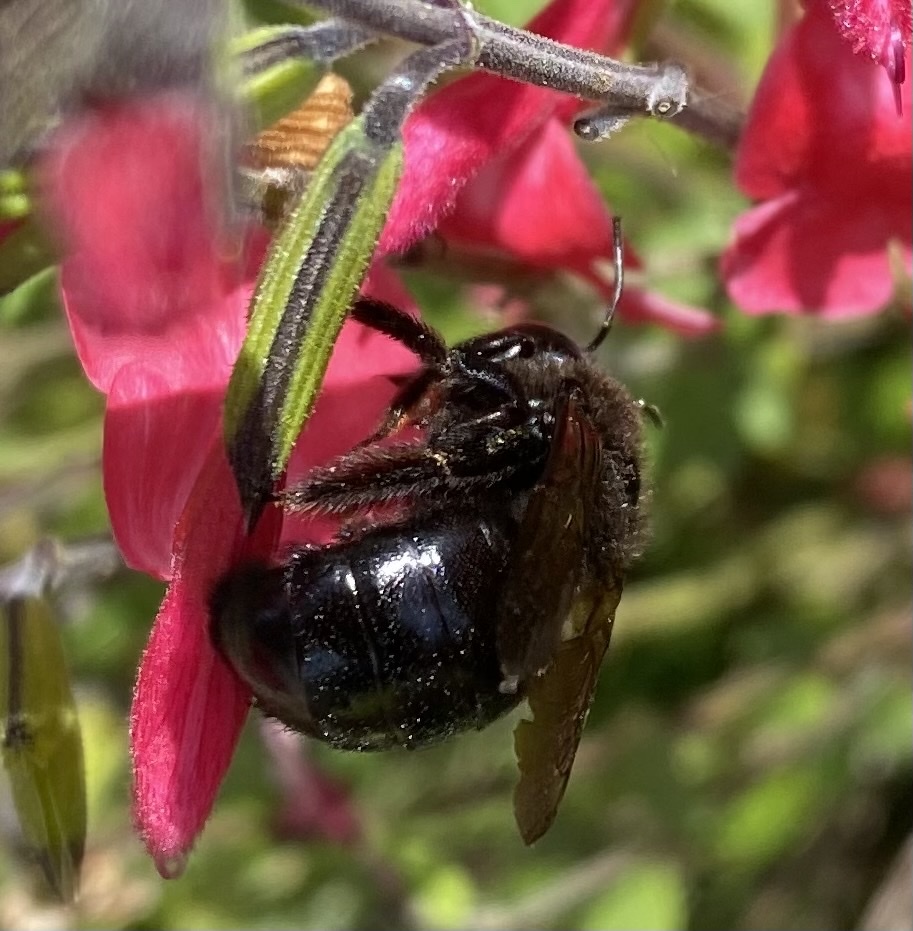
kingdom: Animalia
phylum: Arthropoda
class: Insecta
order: Hymenoptera
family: Apidae
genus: Xylocopa
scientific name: Xylocopa tabaniformis
